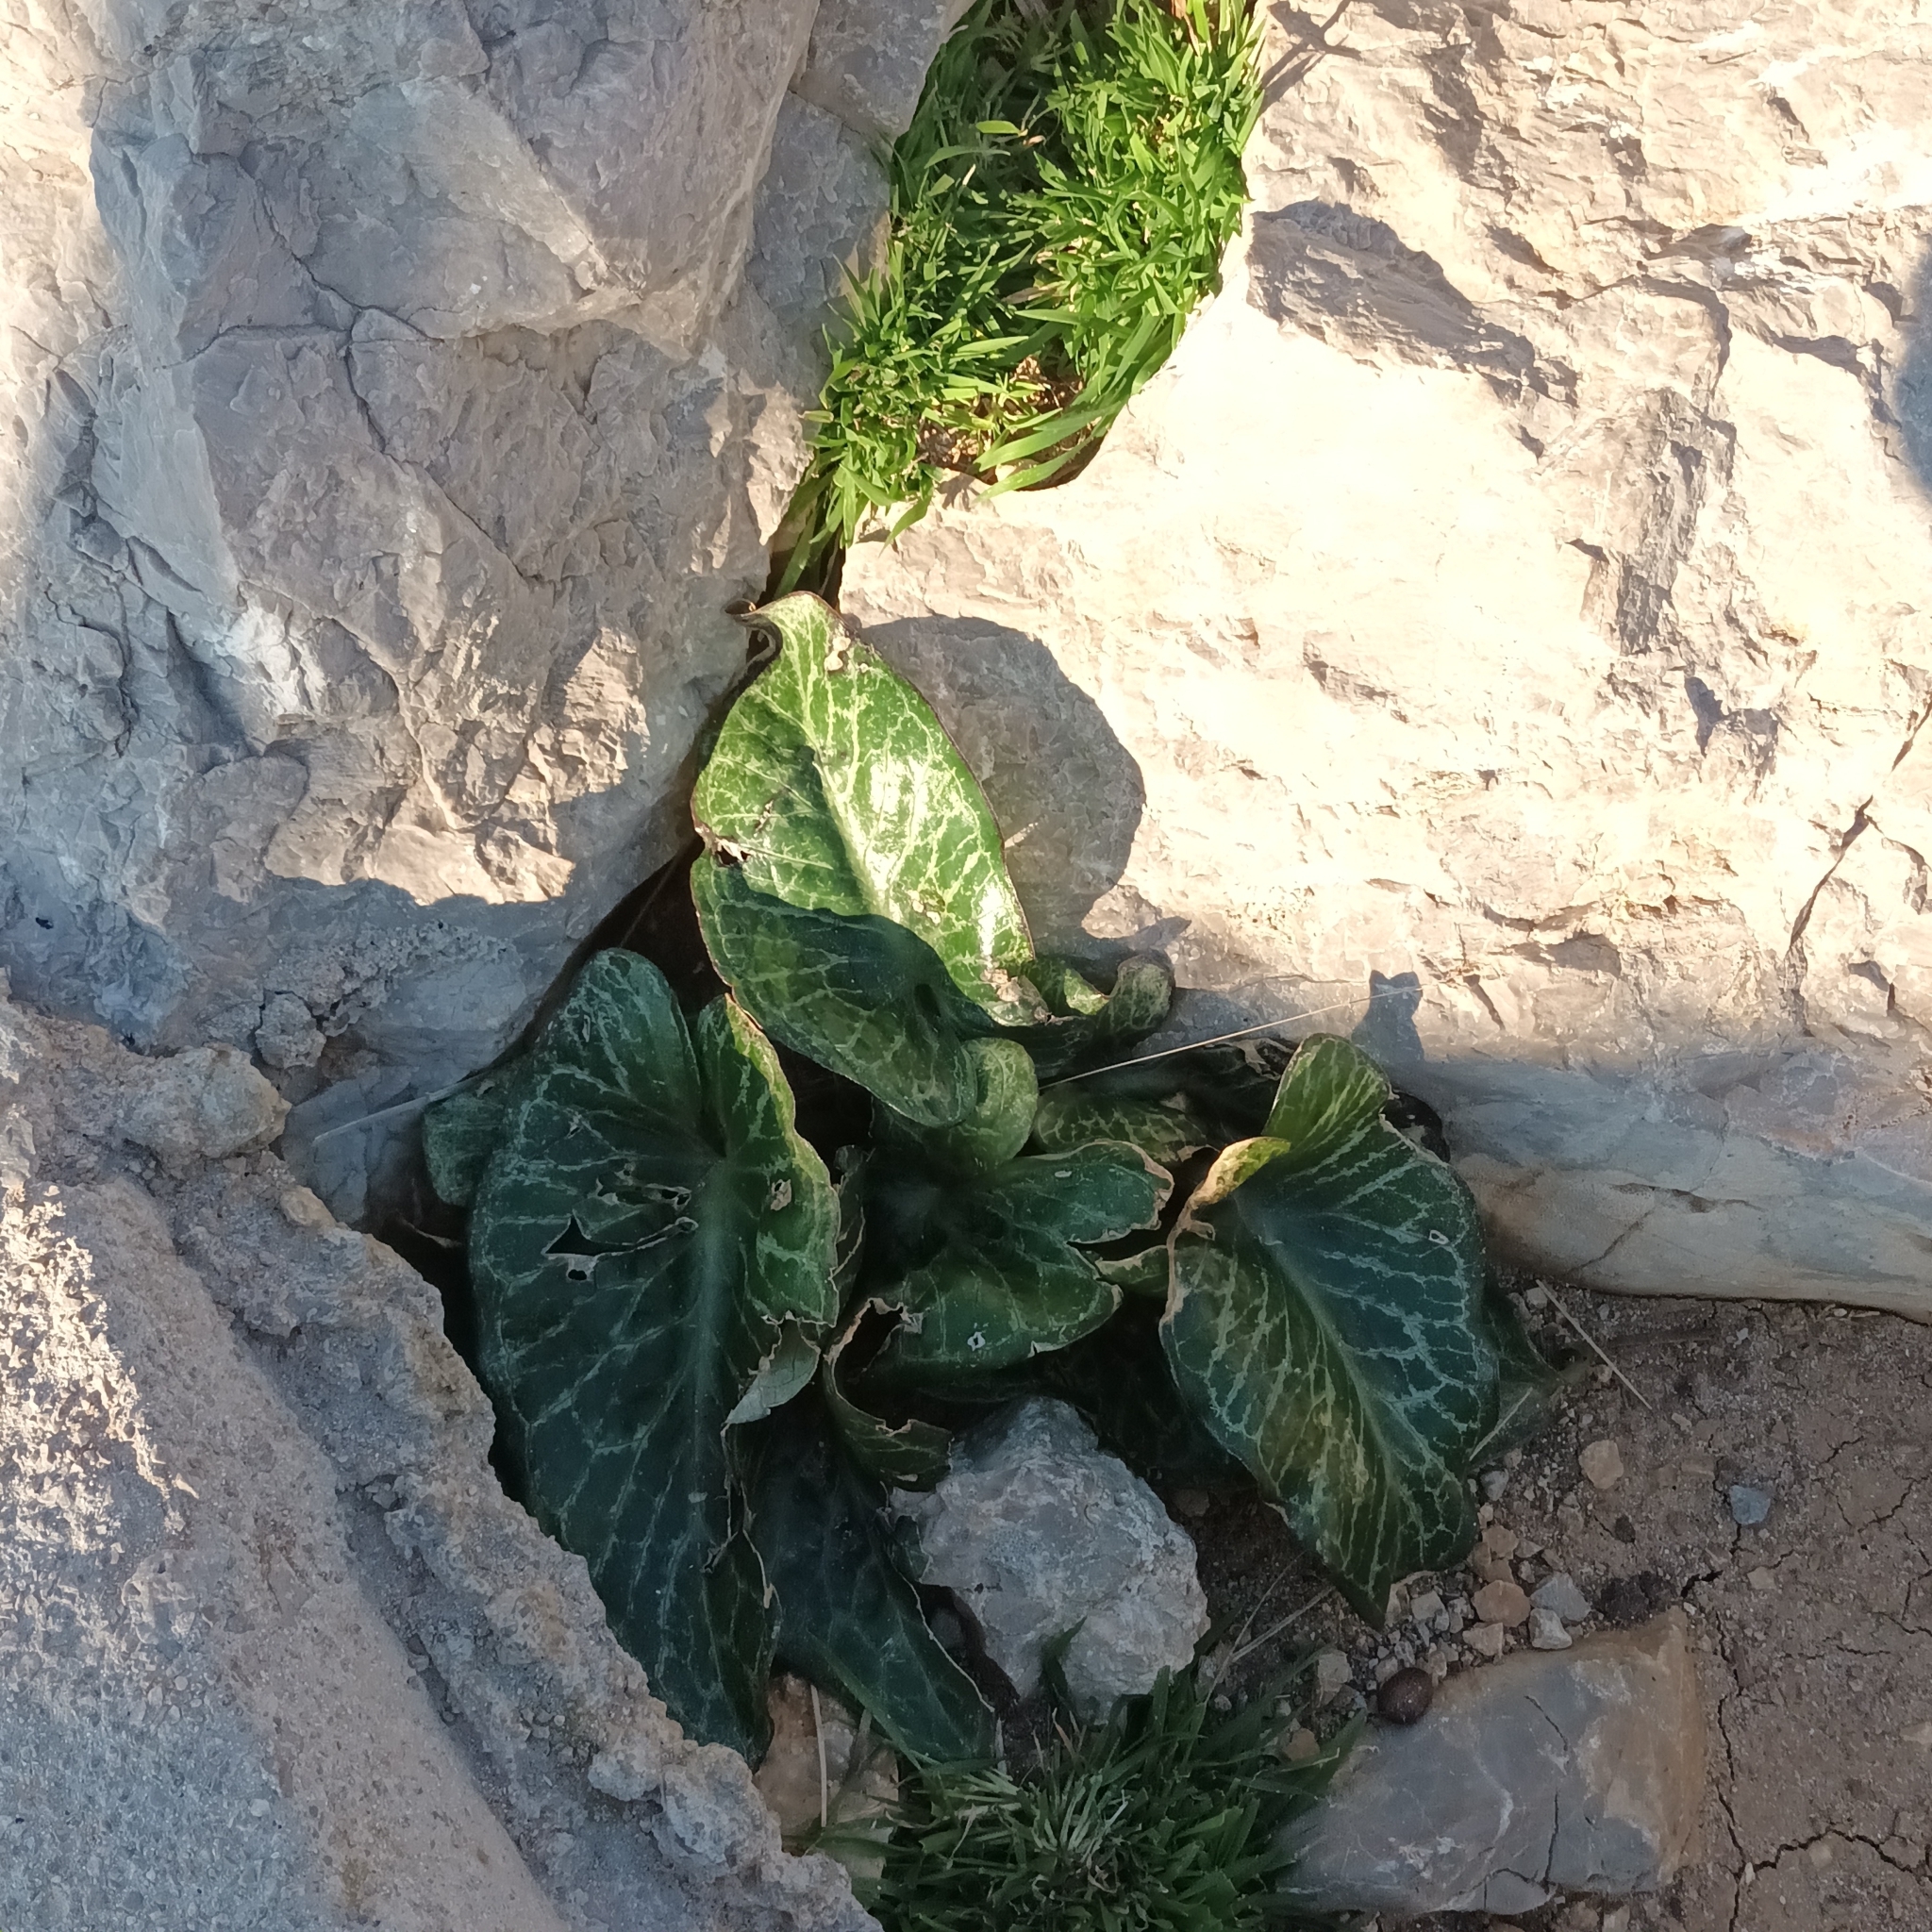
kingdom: Plantae
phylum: Tracheophyta
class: Liliopsida
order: Alismatales
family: Araceae
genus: Arum
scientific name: Arum pictum
